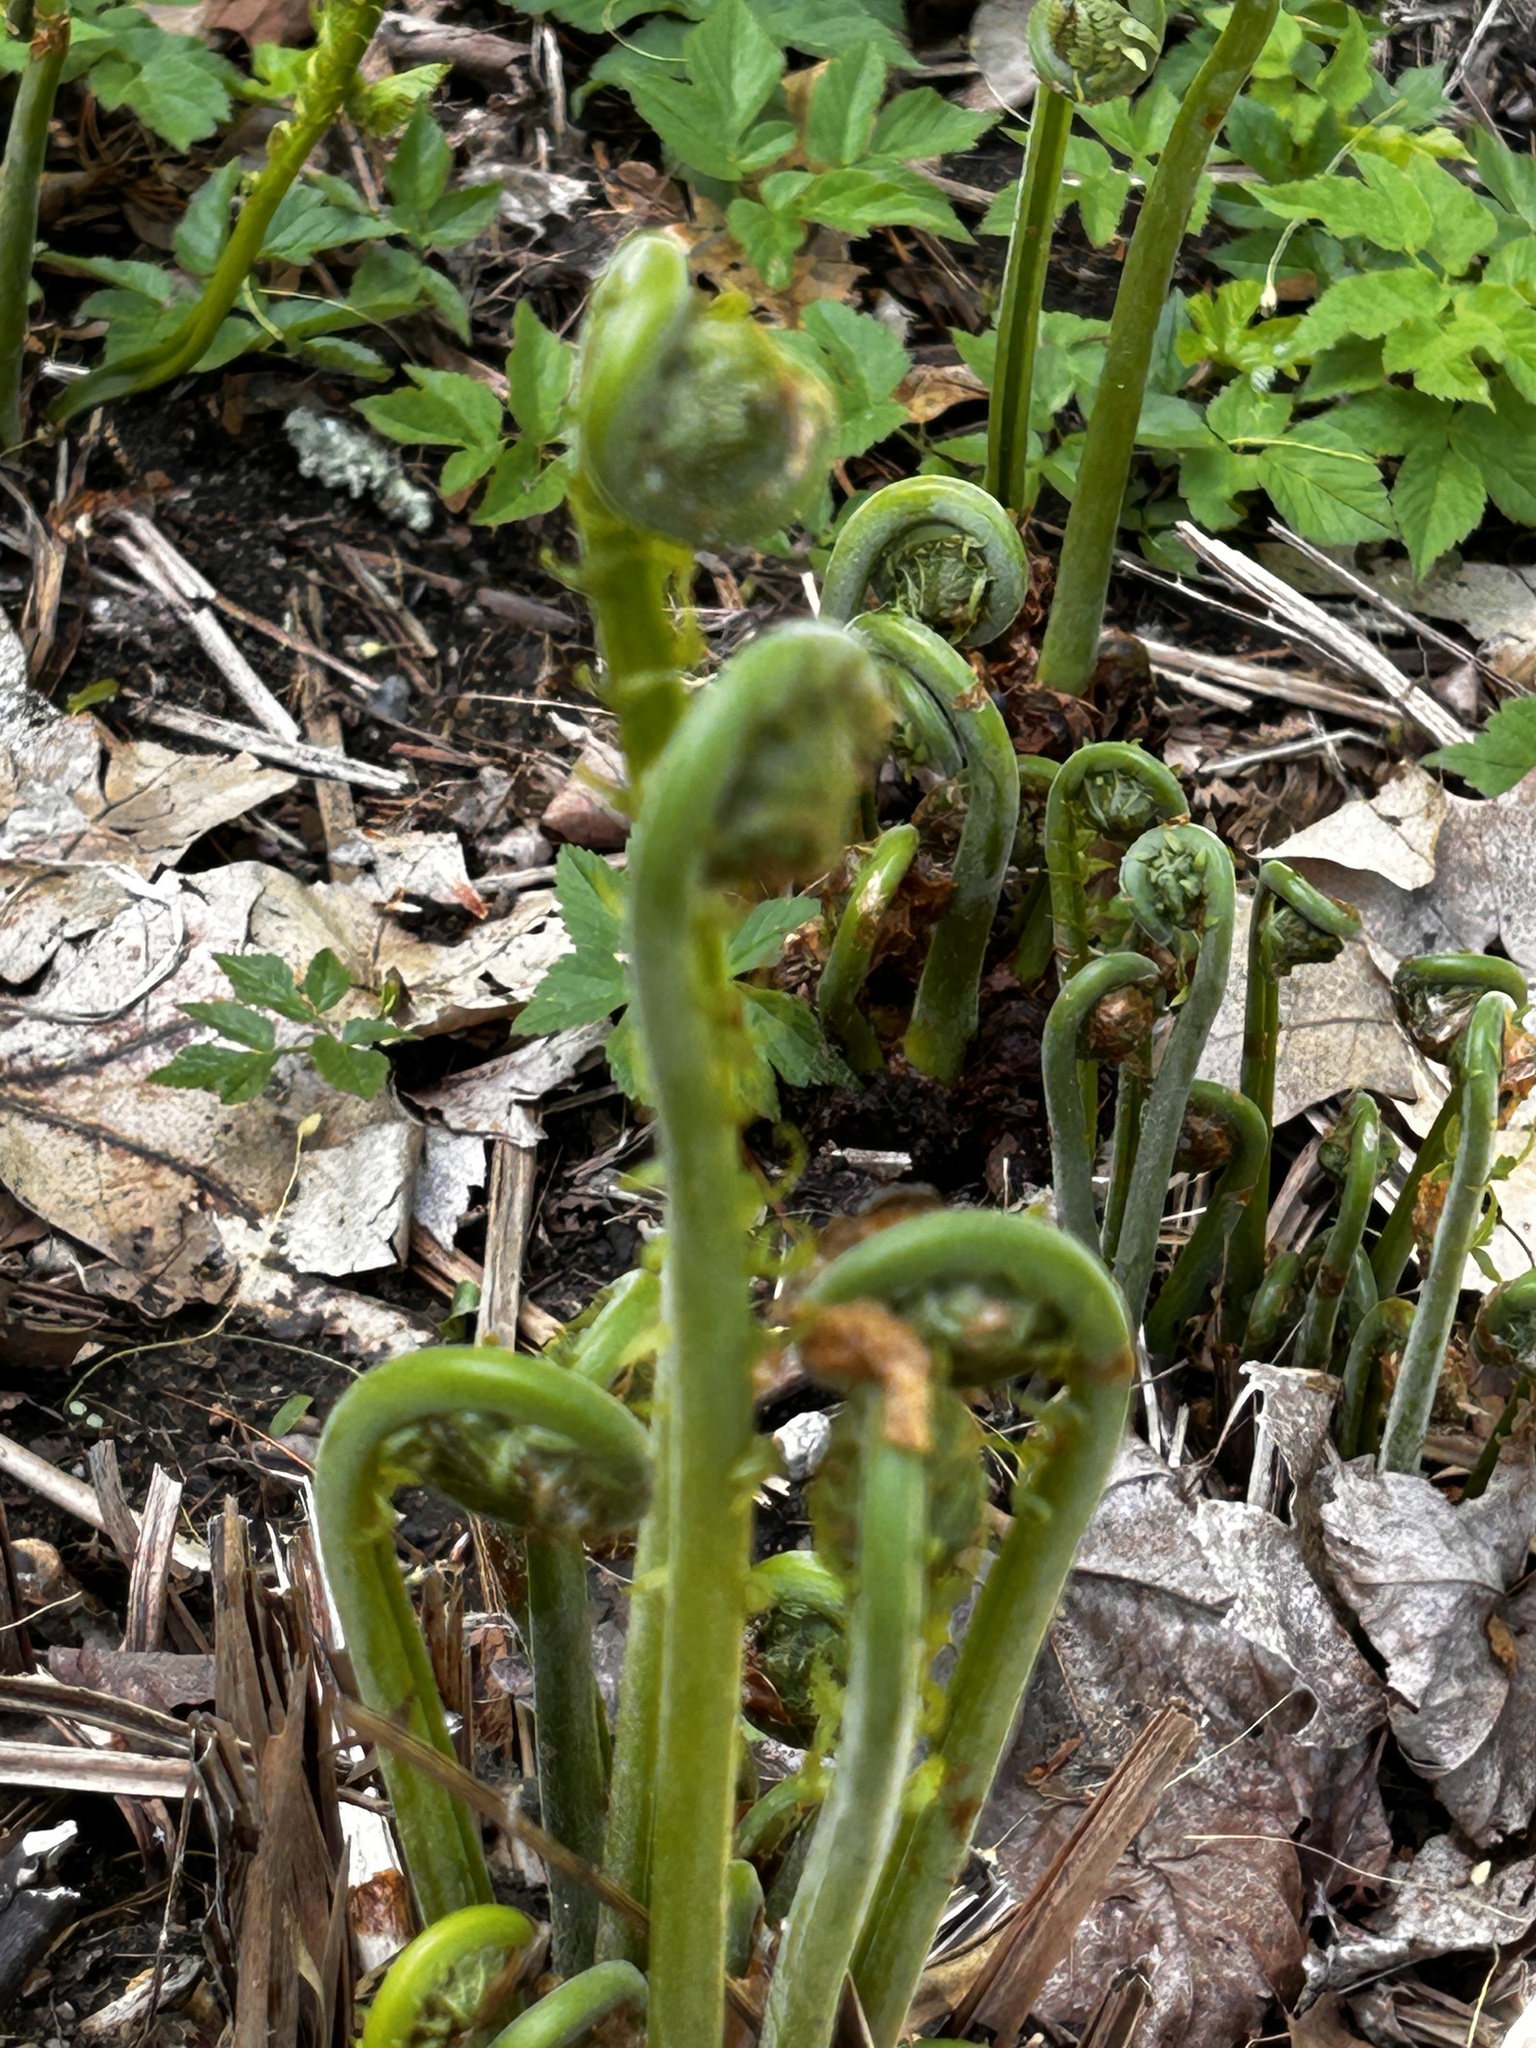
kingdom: Plantae
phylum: Tracheophyta
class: Polypodiopsida
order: Polypodiales
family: Onocleaceae
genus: Matteuccia
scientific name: Matteuccia struthiopteris
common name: Ostrich fern
